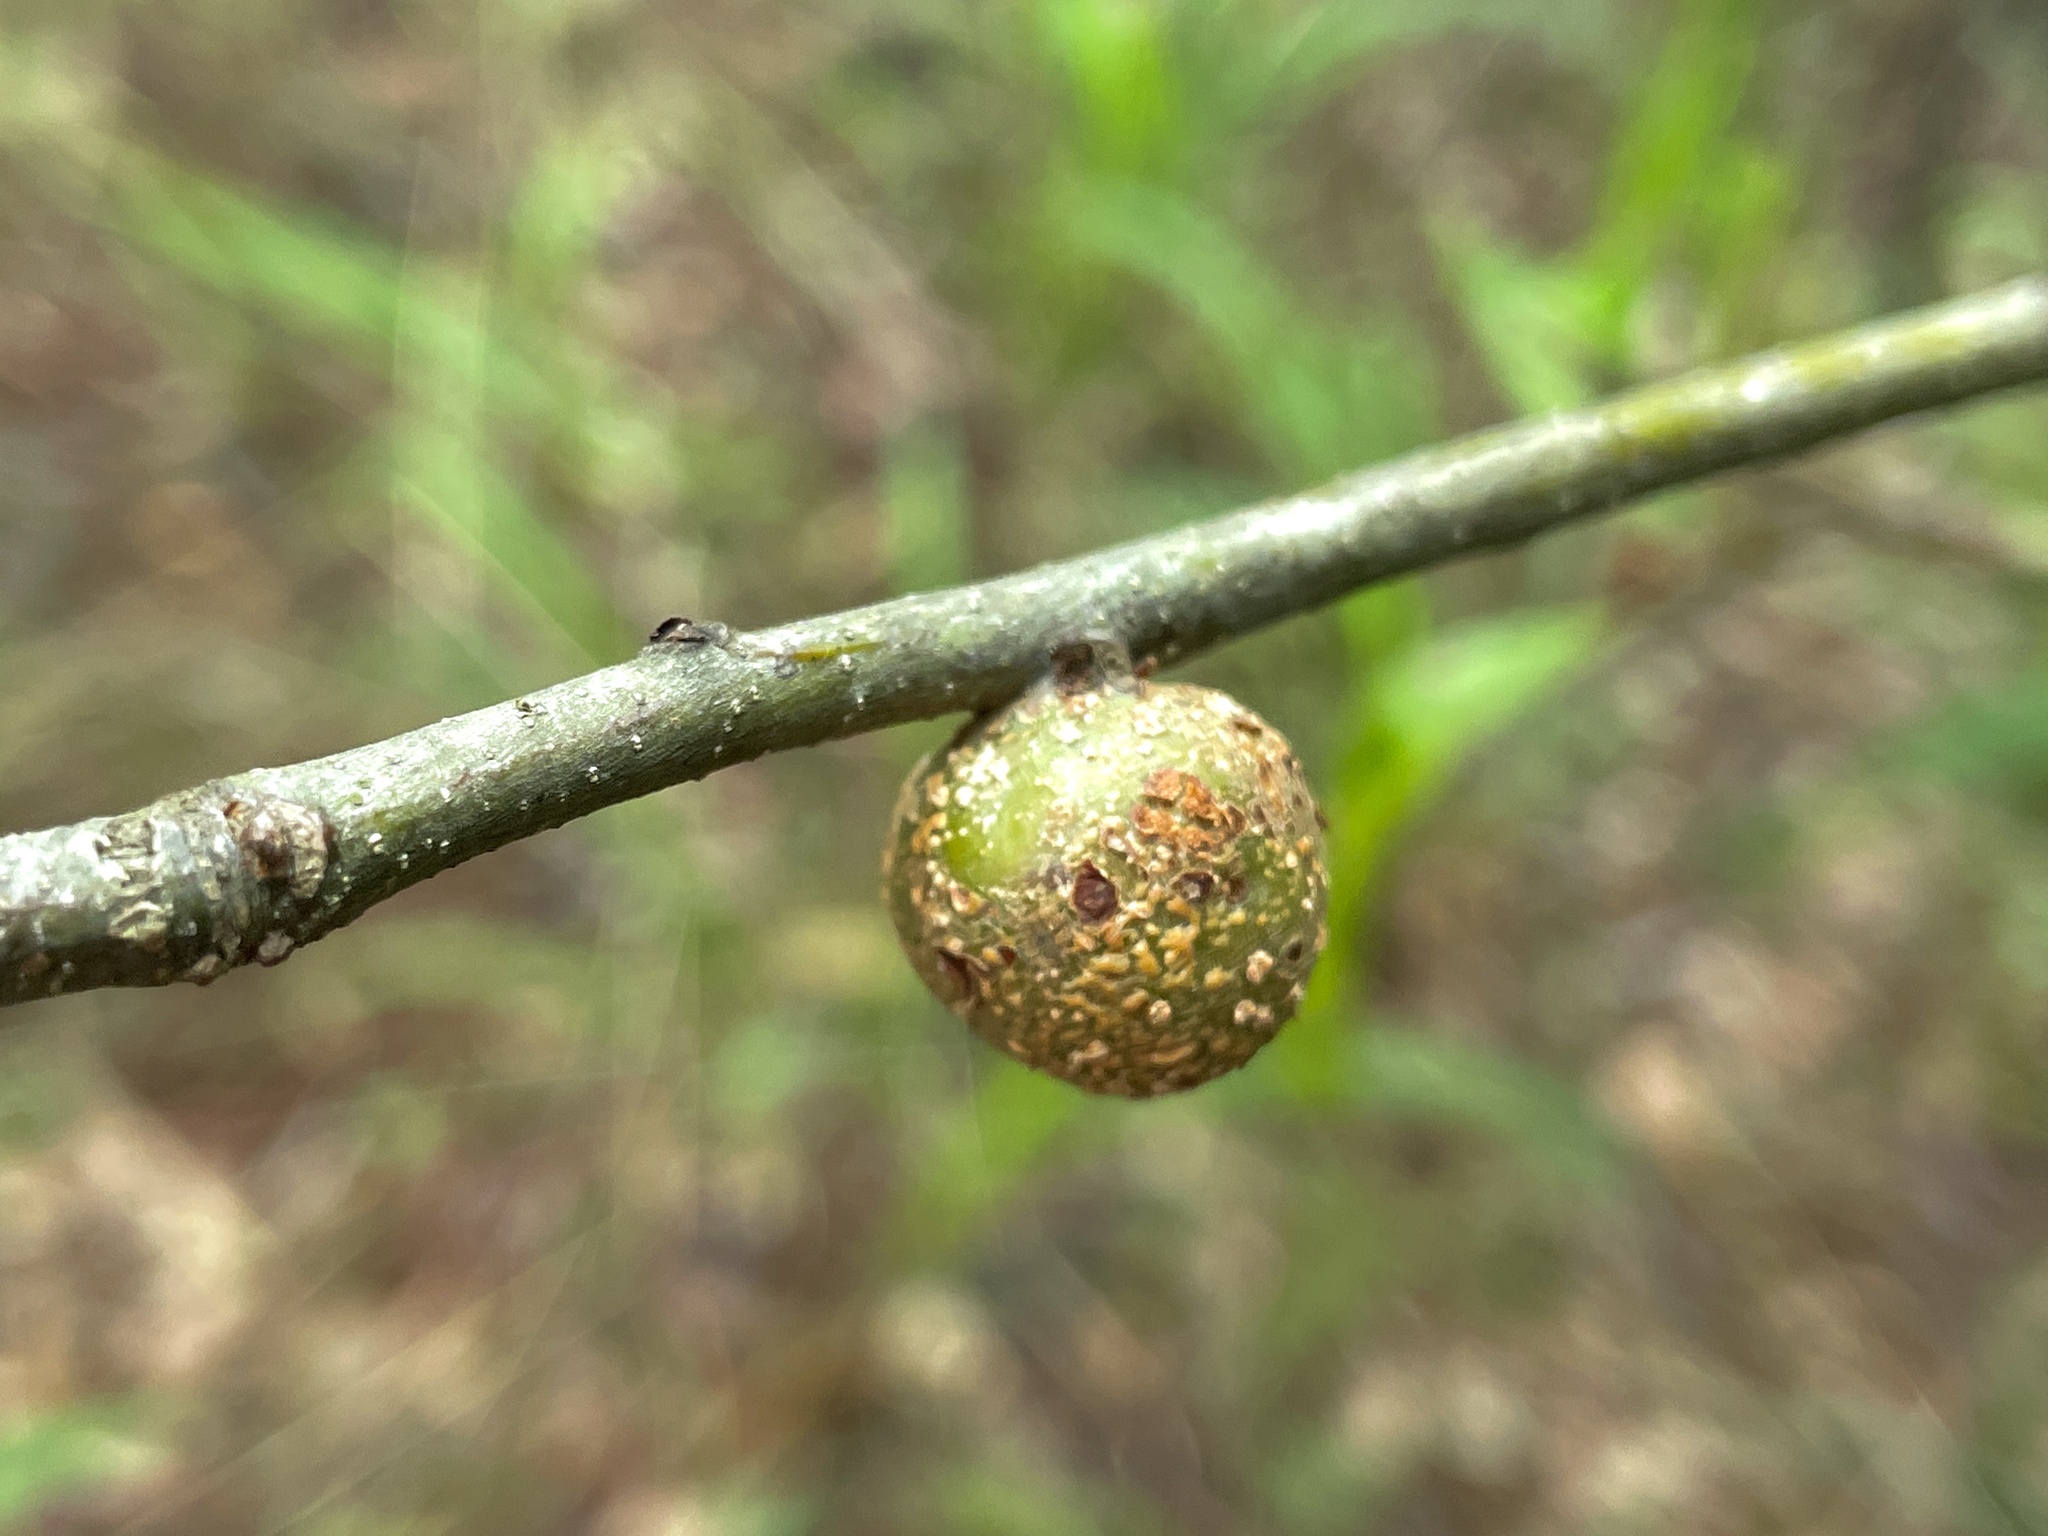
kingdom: Animalia
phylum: Arthropoda
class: Insecta
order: Hymenoptera
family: Cynipidae
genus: Synergus
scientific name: Synergus lignicola
